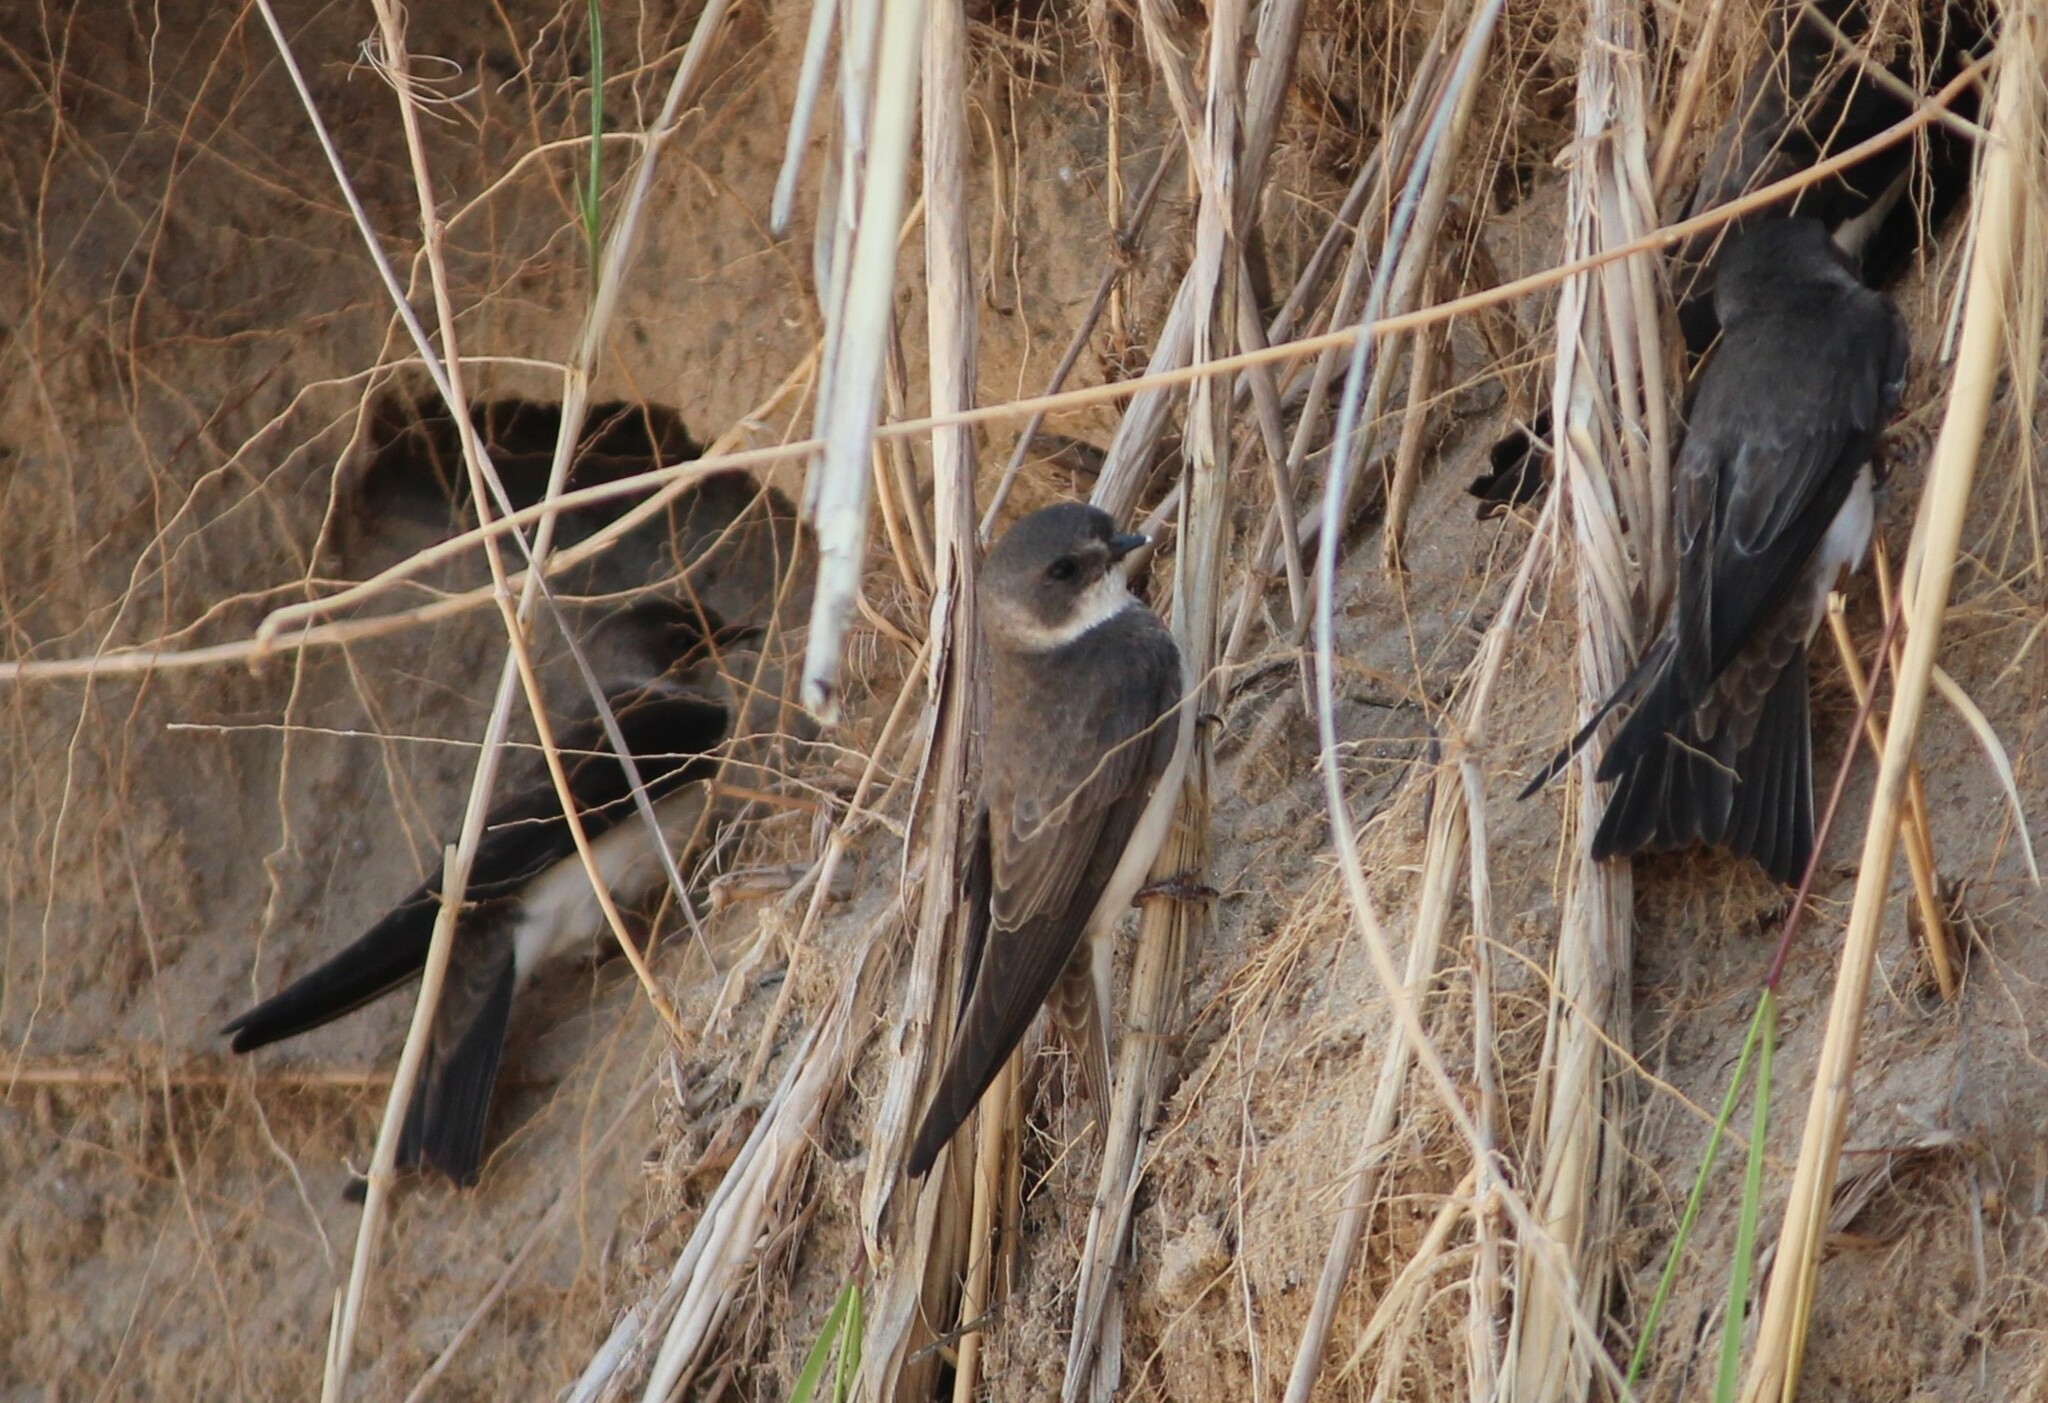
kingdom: Animalia
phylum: Chordata
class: Aves
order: Passeriformes
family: Hirundinidae
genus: Riparia
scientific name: Riparia riparia
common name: Sand martin
